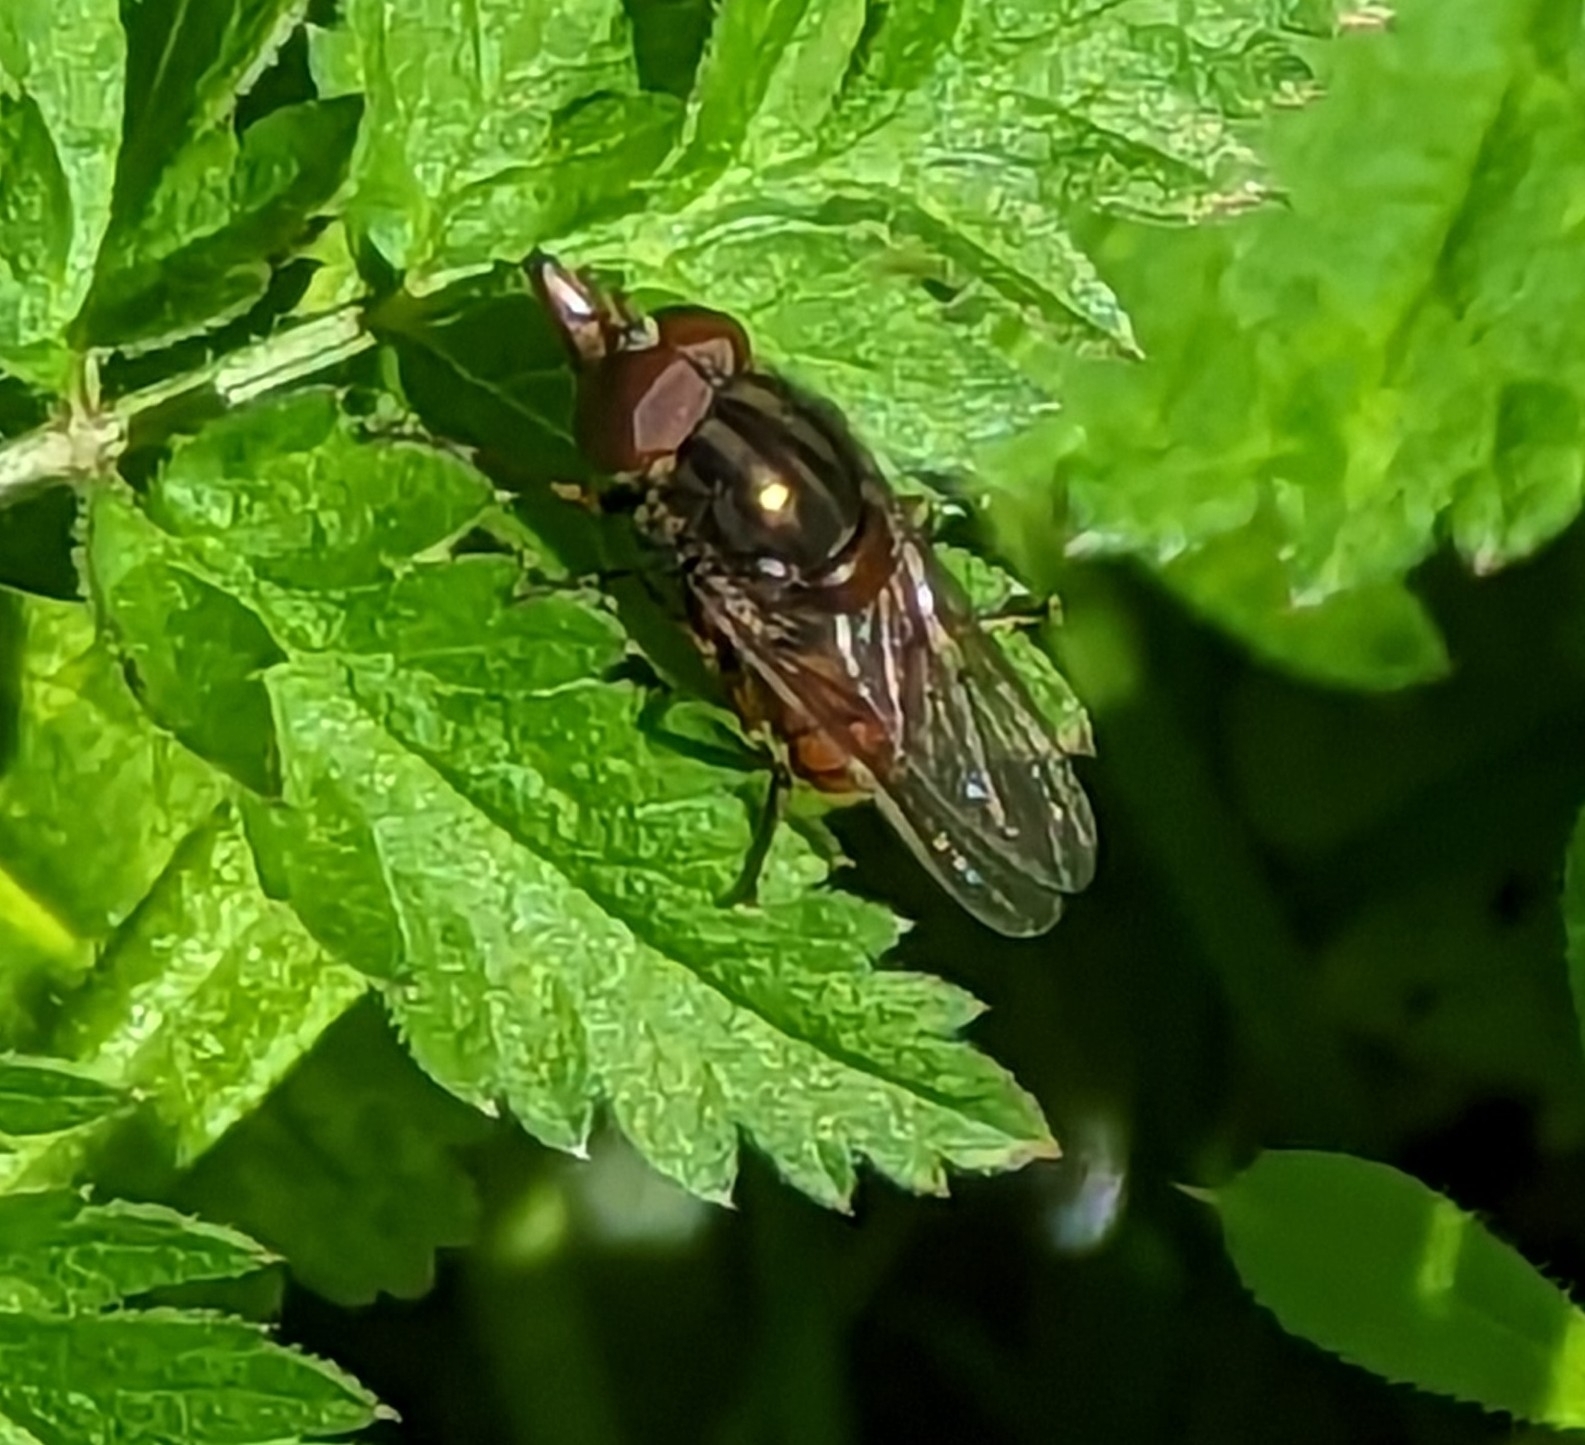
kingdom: Animalia
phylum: Arthropoda
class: Insecta
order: Diptera
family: Syrphidae
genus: Rhingia
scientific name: Rhingia campestris
